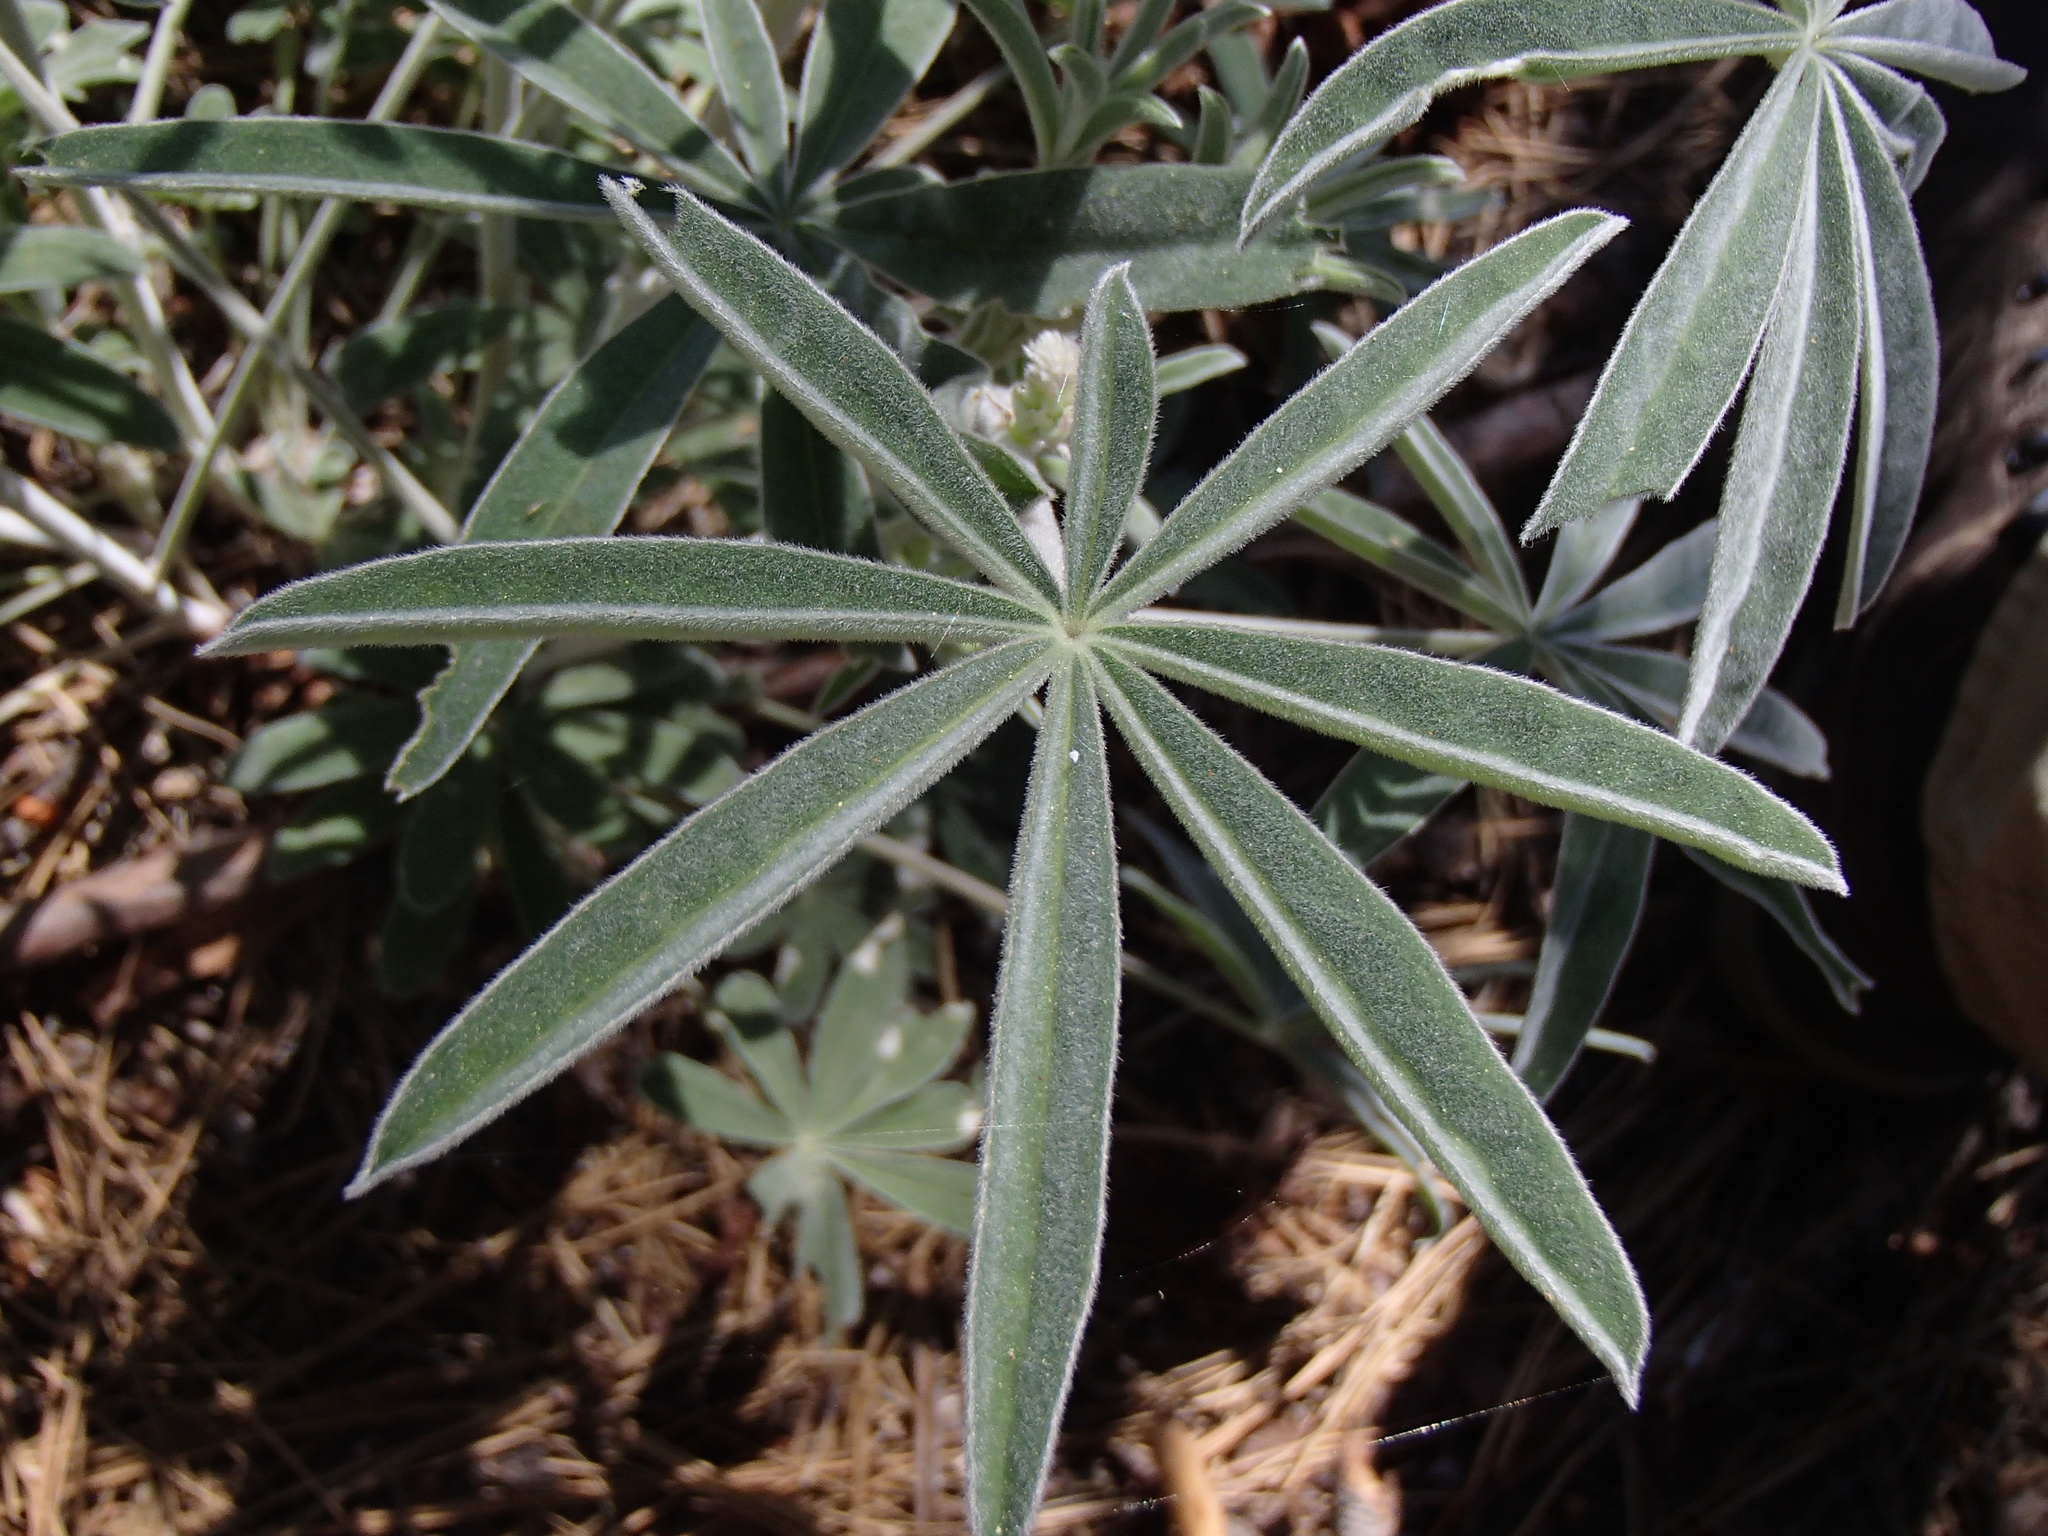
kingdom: Plantae
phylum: Tracheophyta
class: Magnoliopsida
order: Fabales
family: Fabaceae
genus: Lupinus
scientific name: Lupinus leucophyllus
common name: Woolly-leaf lupine
